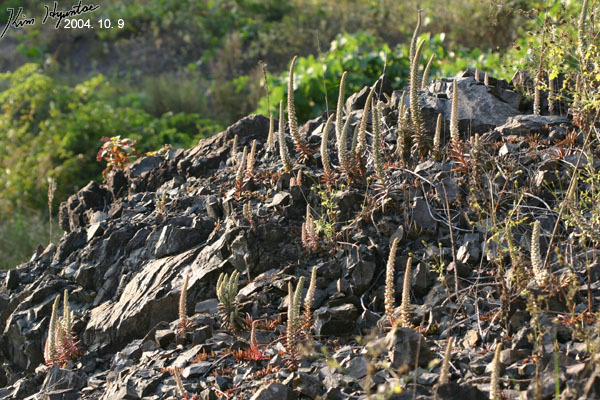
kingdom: Plantae
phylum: Tracheophyta
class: Magnoliopsida
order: Saxifragales
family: Crassulaceae
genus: Orostachys
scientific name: Orostachys japonica
